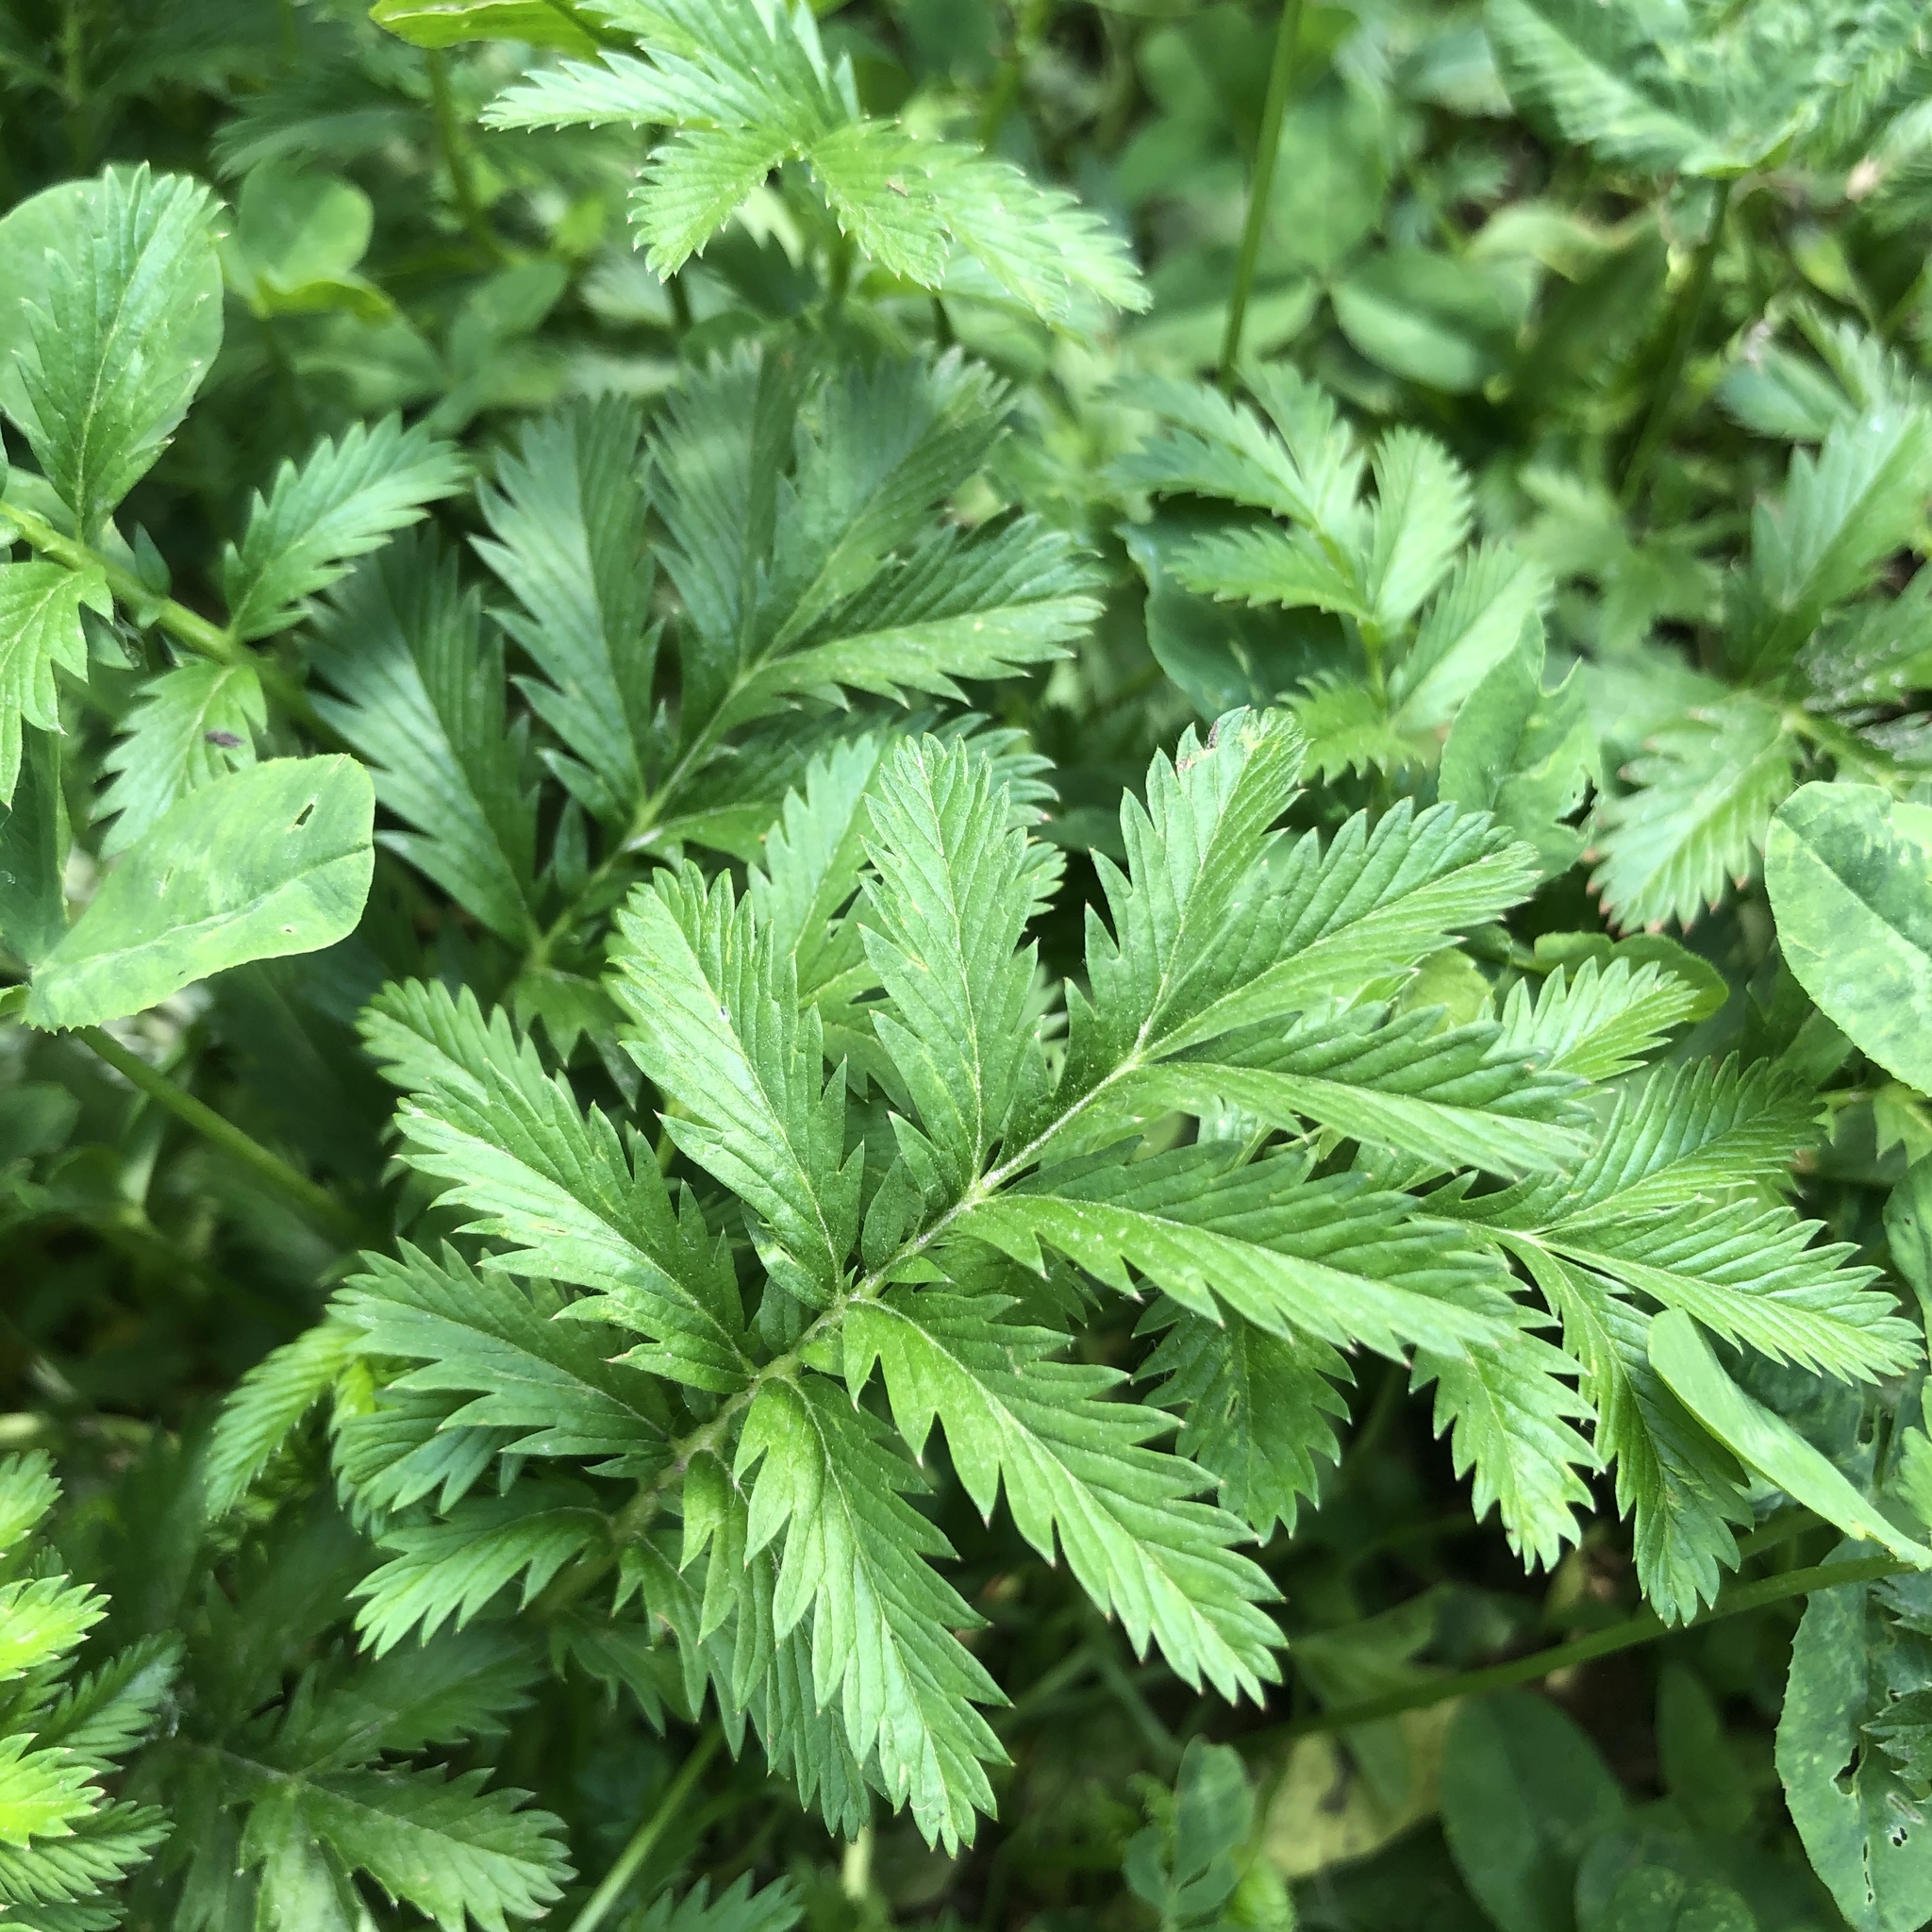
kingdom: Plantae
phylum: Tracheophyta
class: Magnoliopsida
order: Rosales
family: Rosaceae
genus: Argentina
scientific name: Argentina anserina
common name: Common silverweed
